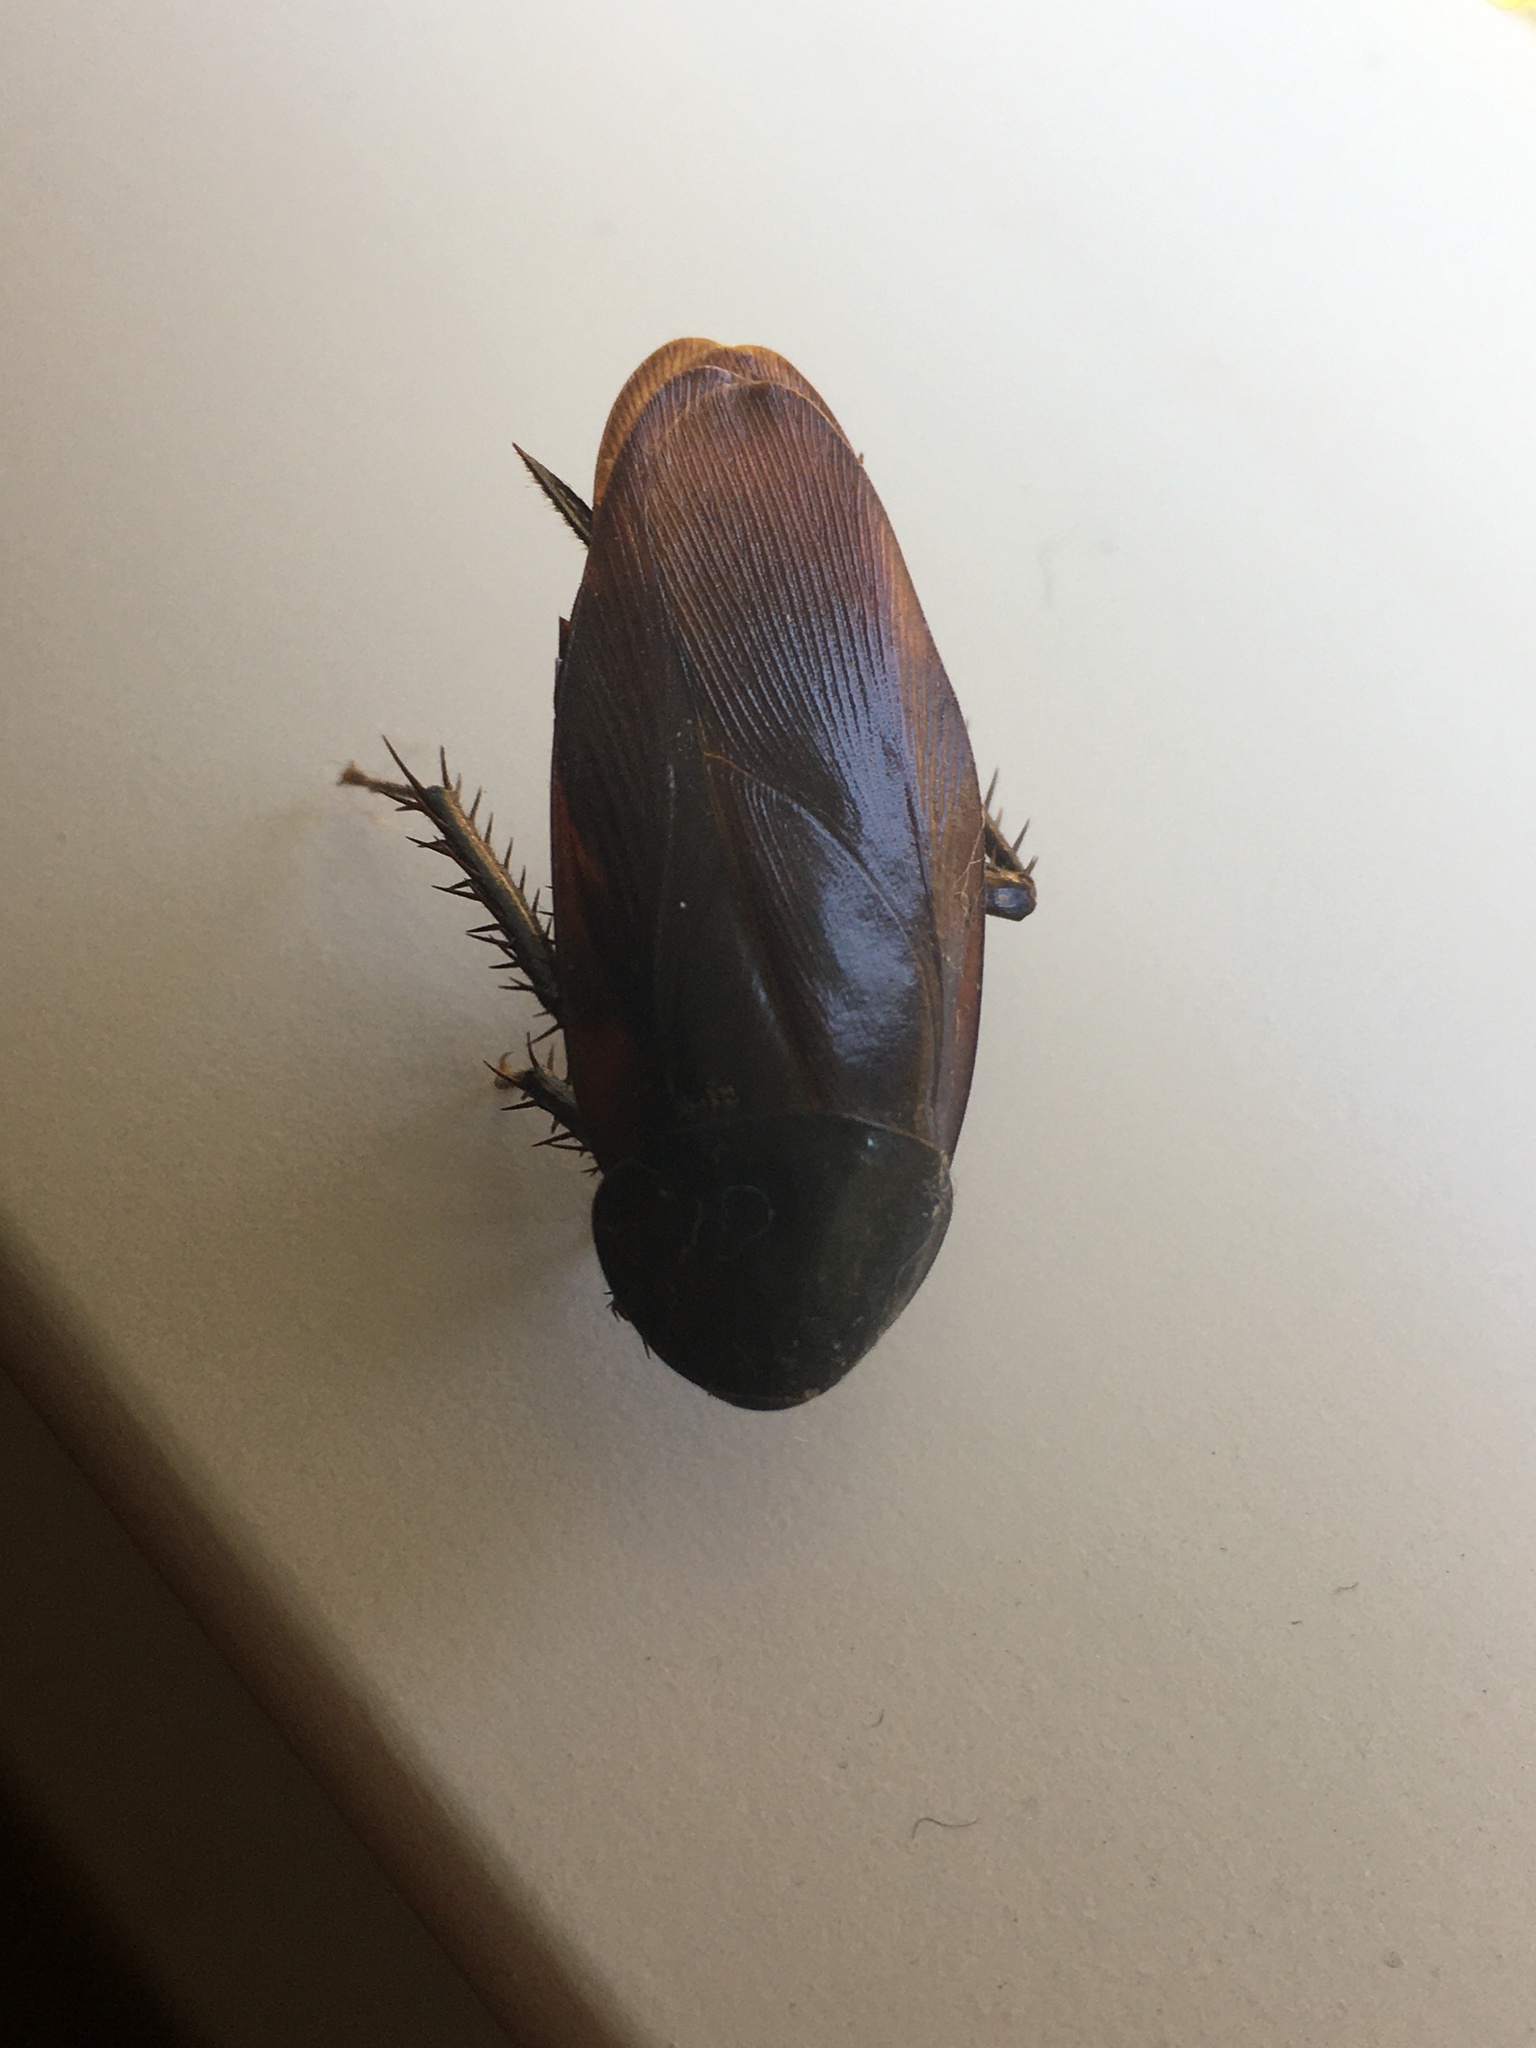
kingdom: Animalia
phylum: Arthropoda
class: Insecta
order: Blattodea
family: Blattidae
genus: Periplaneta
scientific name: Periplaneta fuliginosa
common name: Smokeybrown cockroad
